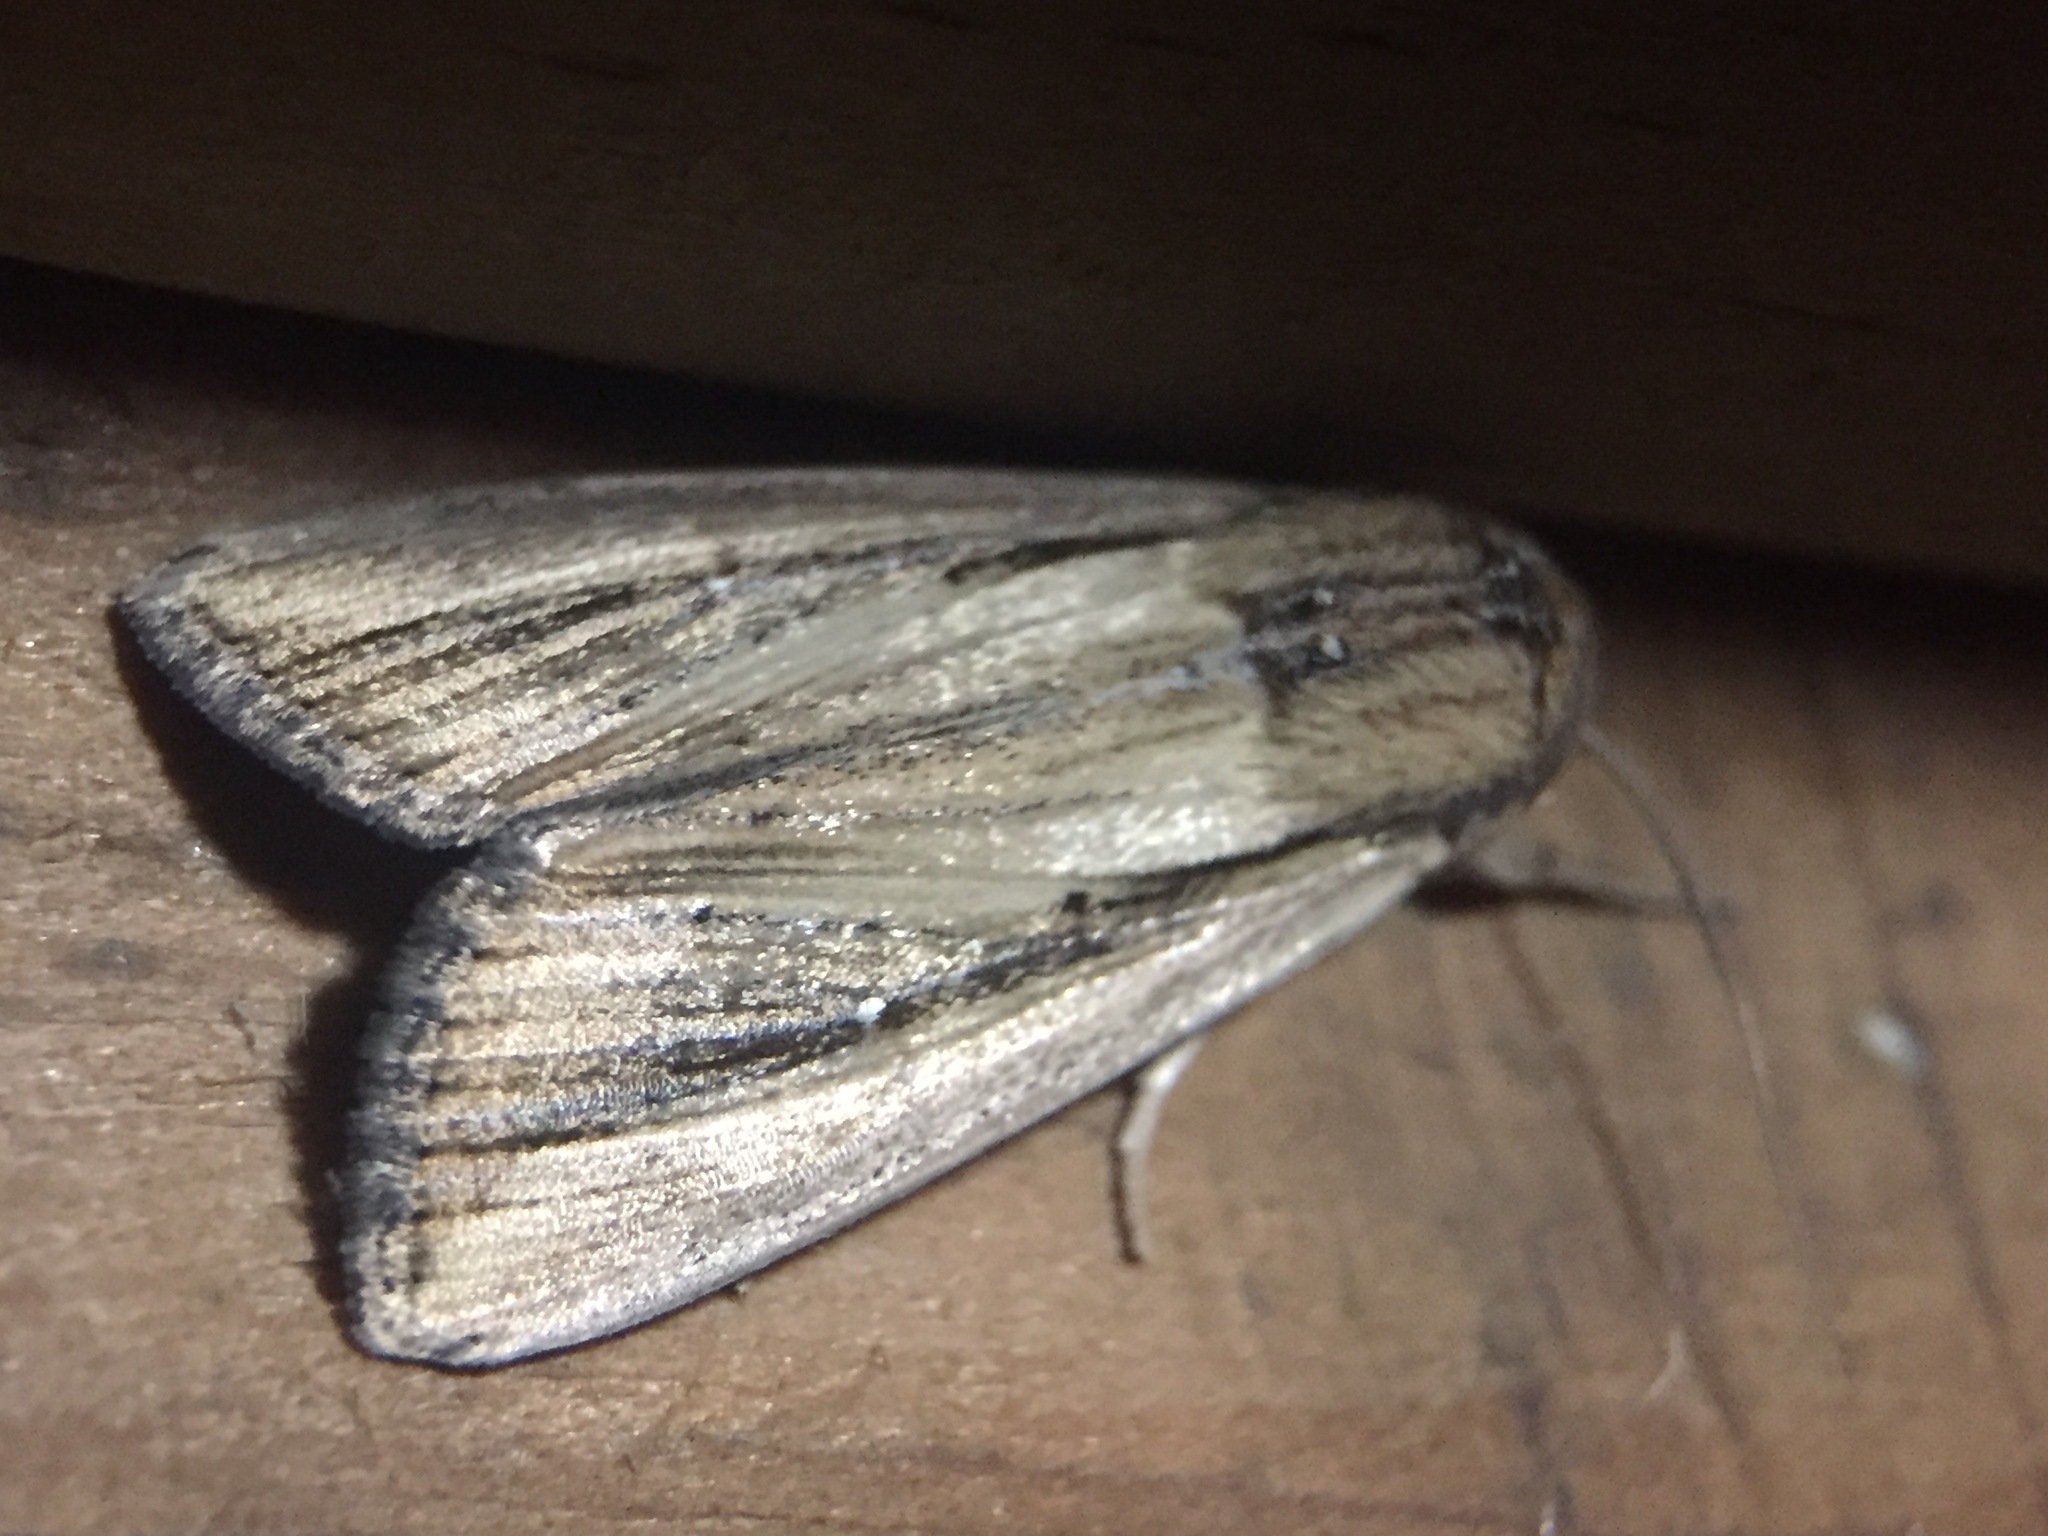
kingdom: Animalia
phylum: Arthropoda
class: Insecta
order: Lepidoptera
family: Noctuidae
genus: Leucania
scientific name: Leucania stenographa
